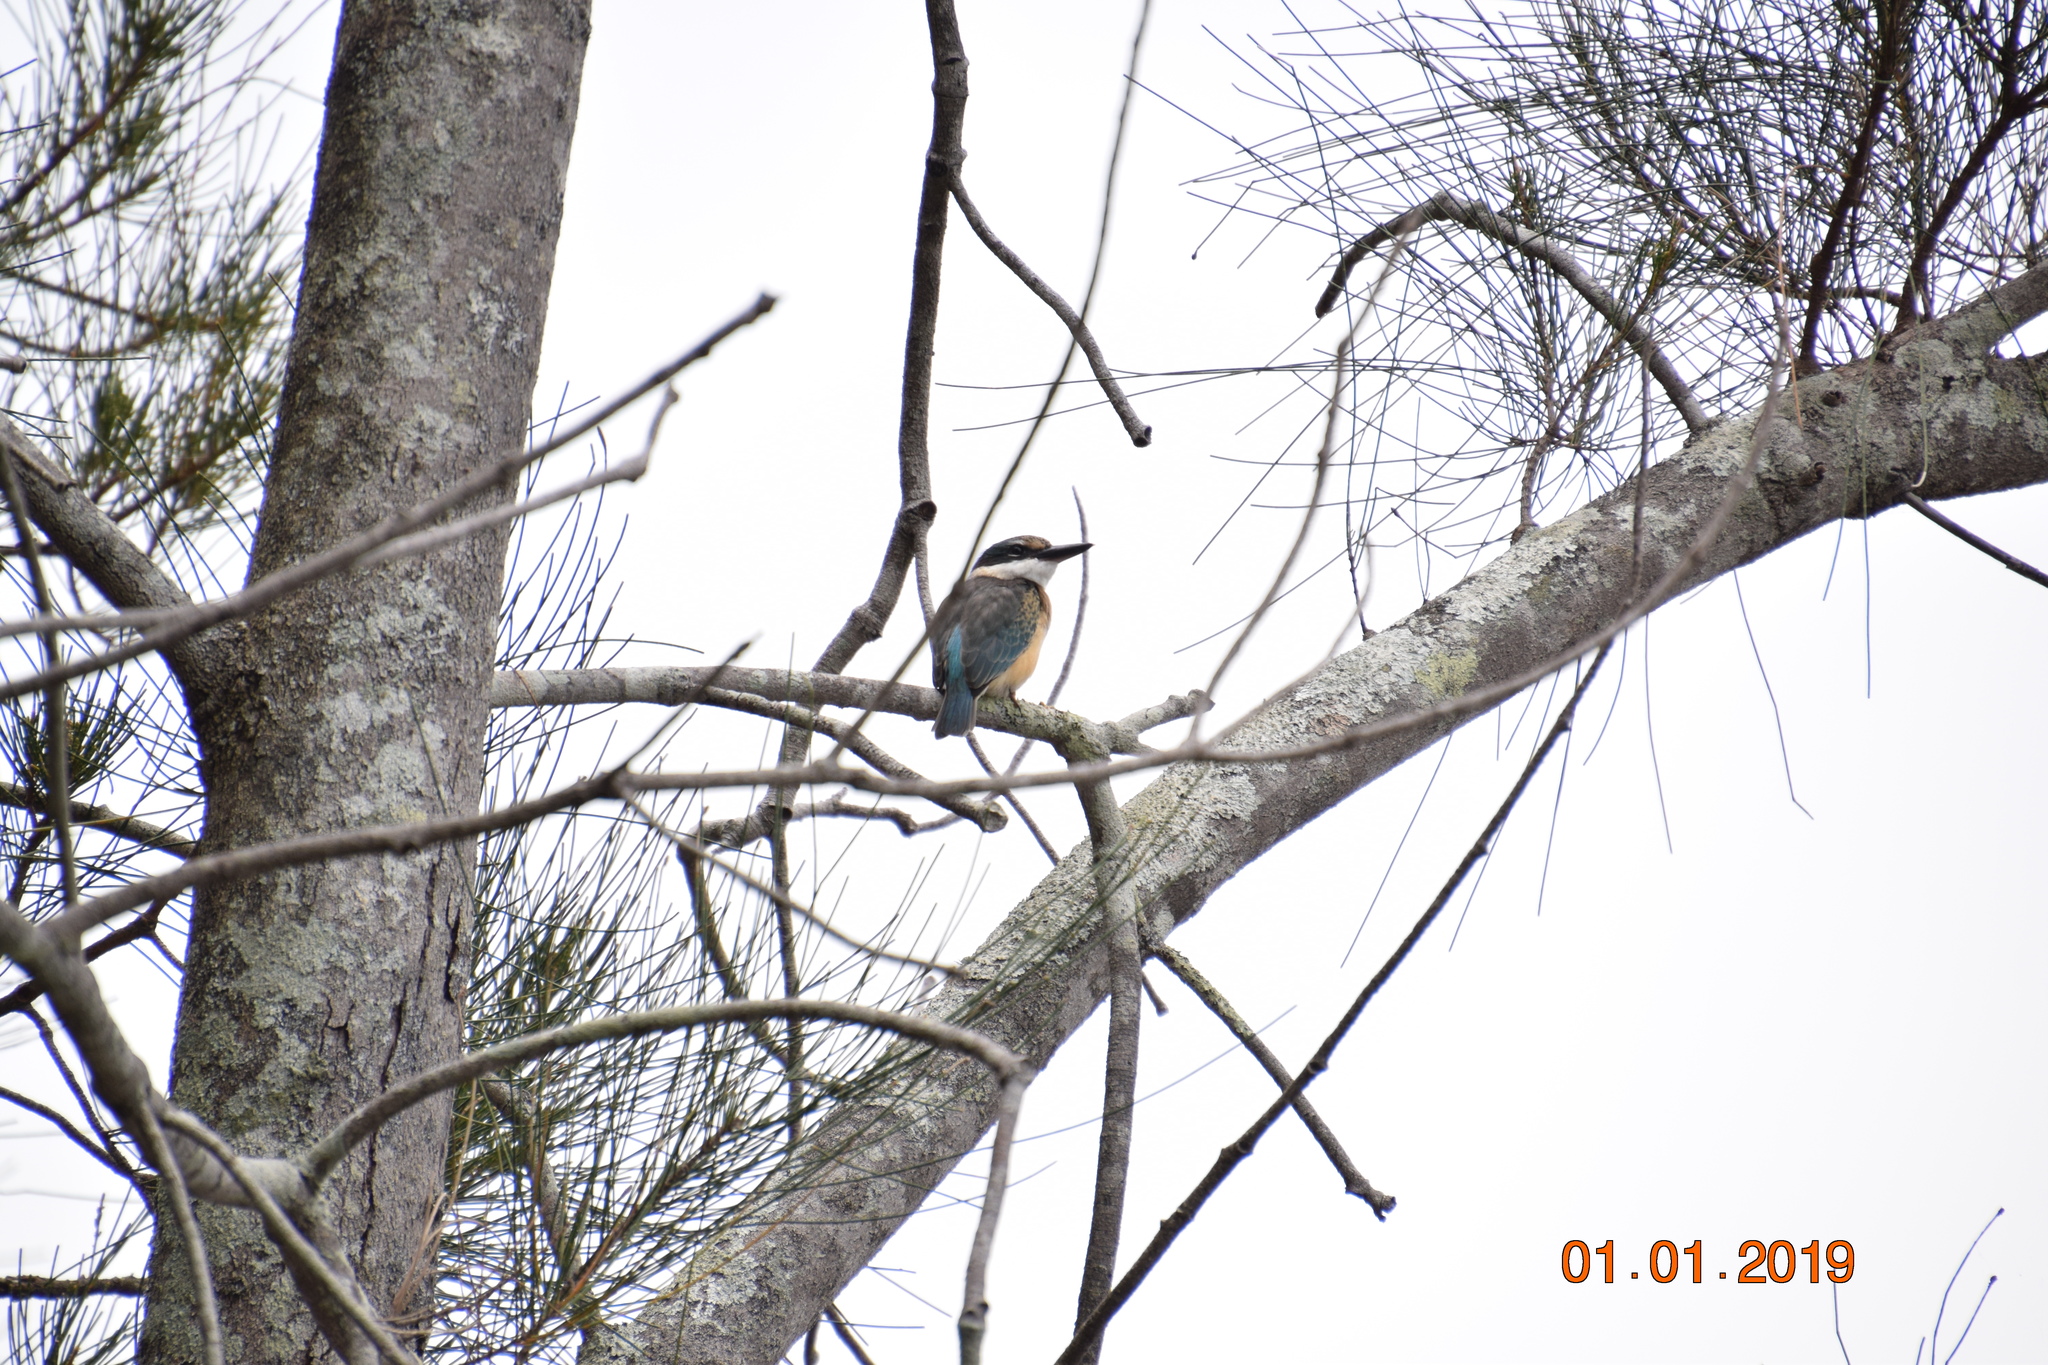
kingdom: Animalia
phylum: Chordata
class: Aves
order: Coraciiformes
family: Alcedinidae
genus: Todiramphus
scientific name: Todiramphus sanctus
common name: Sacred kingfisher
